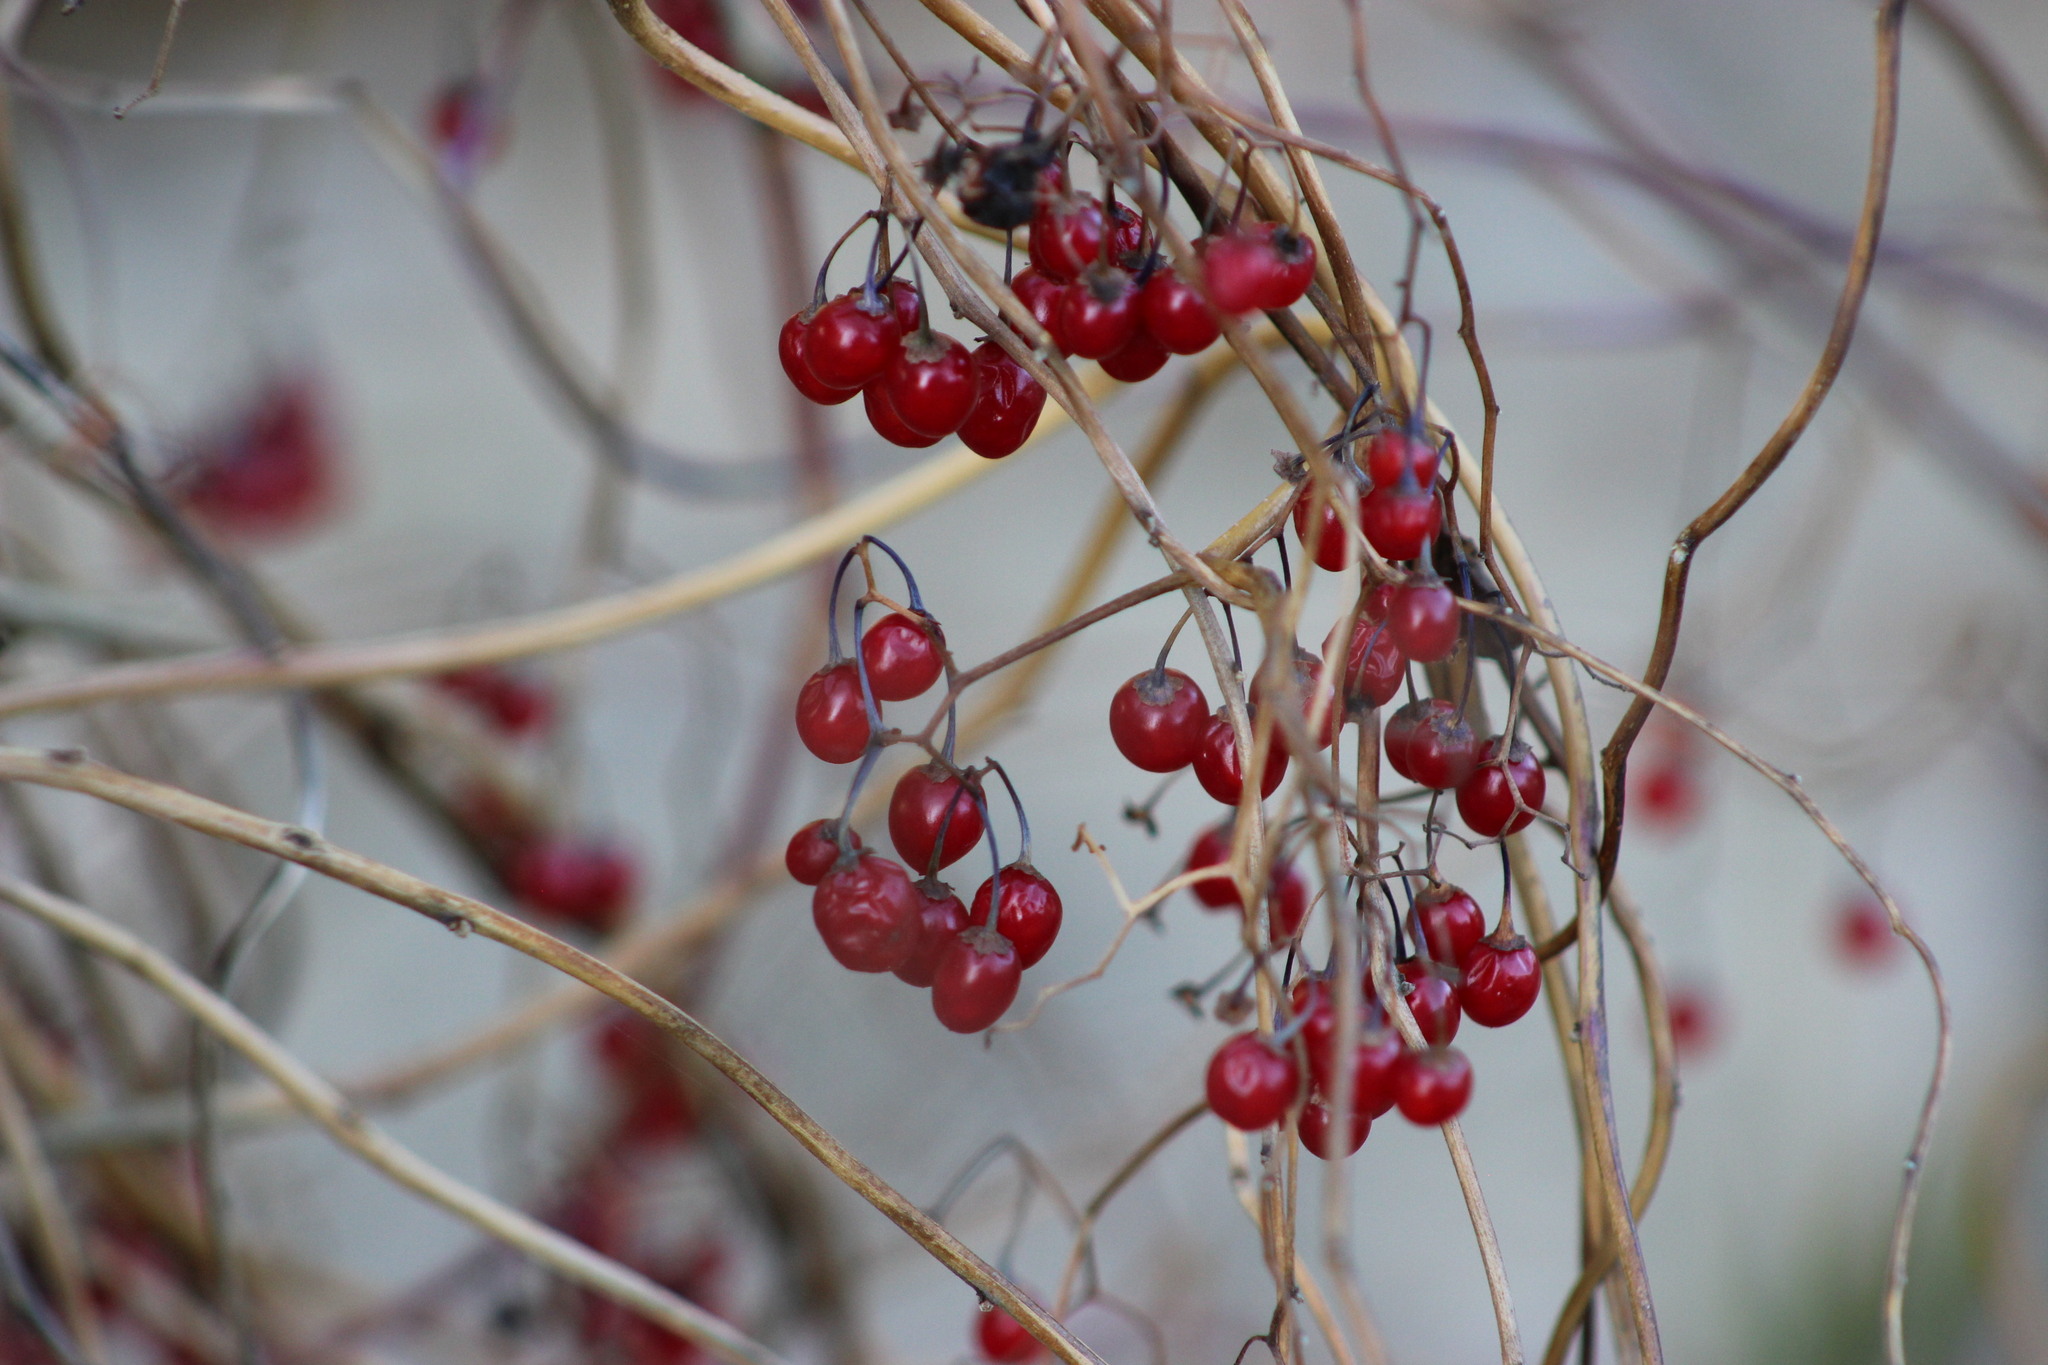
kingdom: Plantae
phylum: Tracheophyta
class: Magnoliopsida
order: Solanales
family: Solanaceae
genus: Solanum
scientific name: Solanum dulcamara
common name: Climbing nightshade
